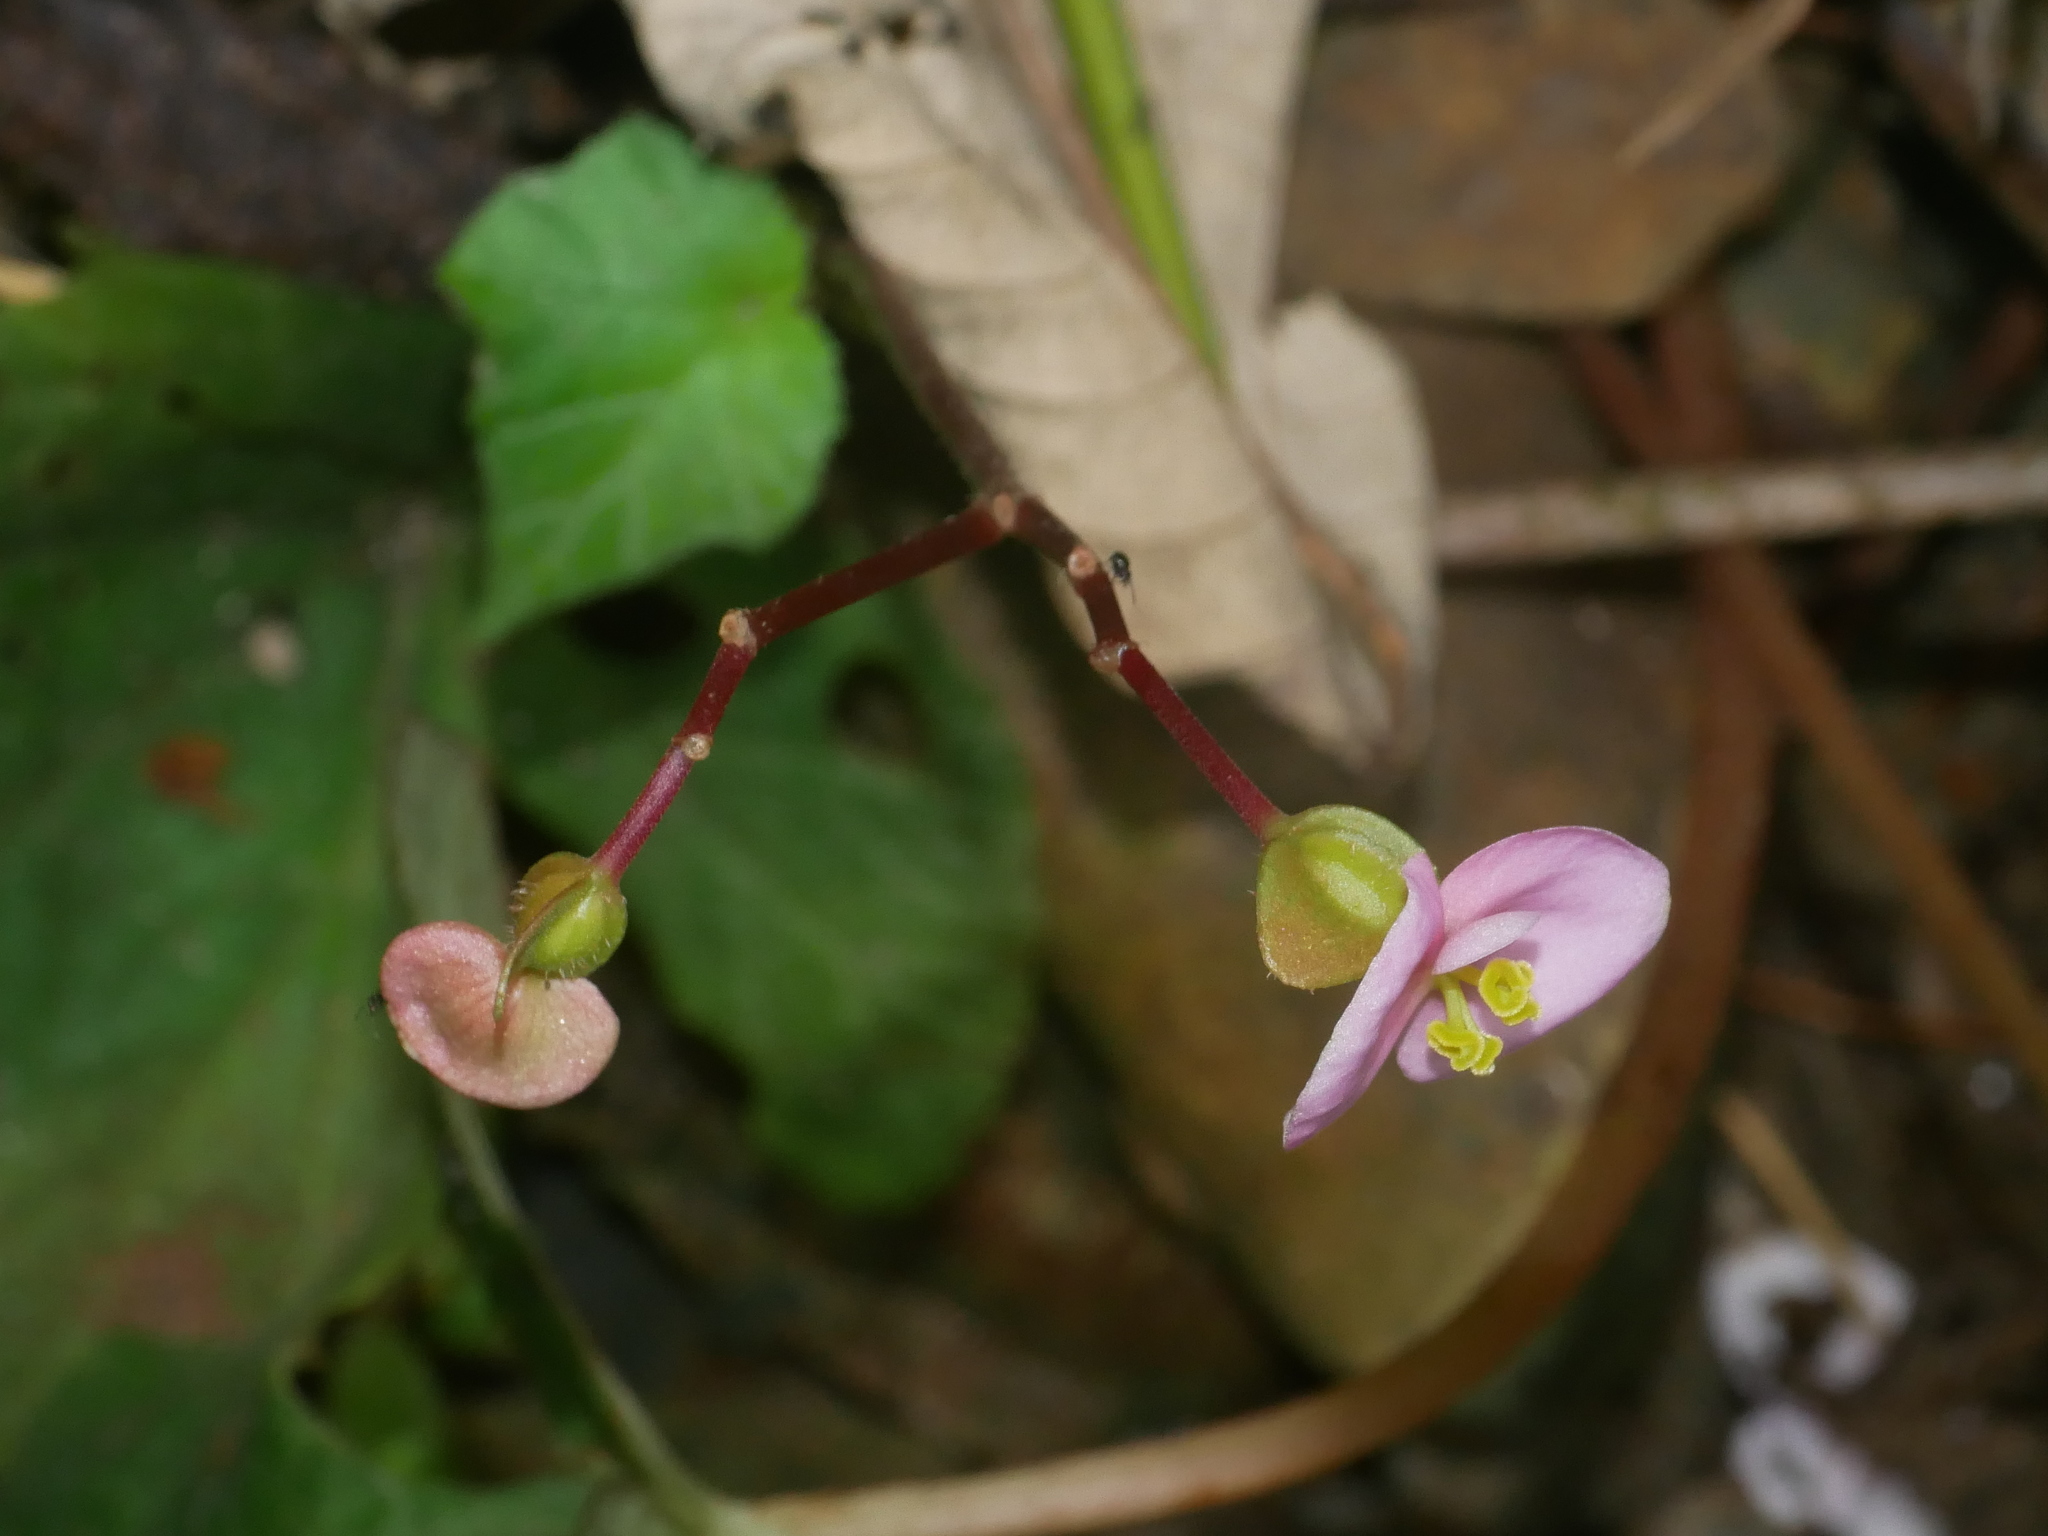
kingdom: Plantae
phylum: Tracheophyta
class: Magnoliopsida
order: Cucurbitales
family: Begoniaceae
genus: Begonia
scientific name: Begonia austrotaiwanensis
